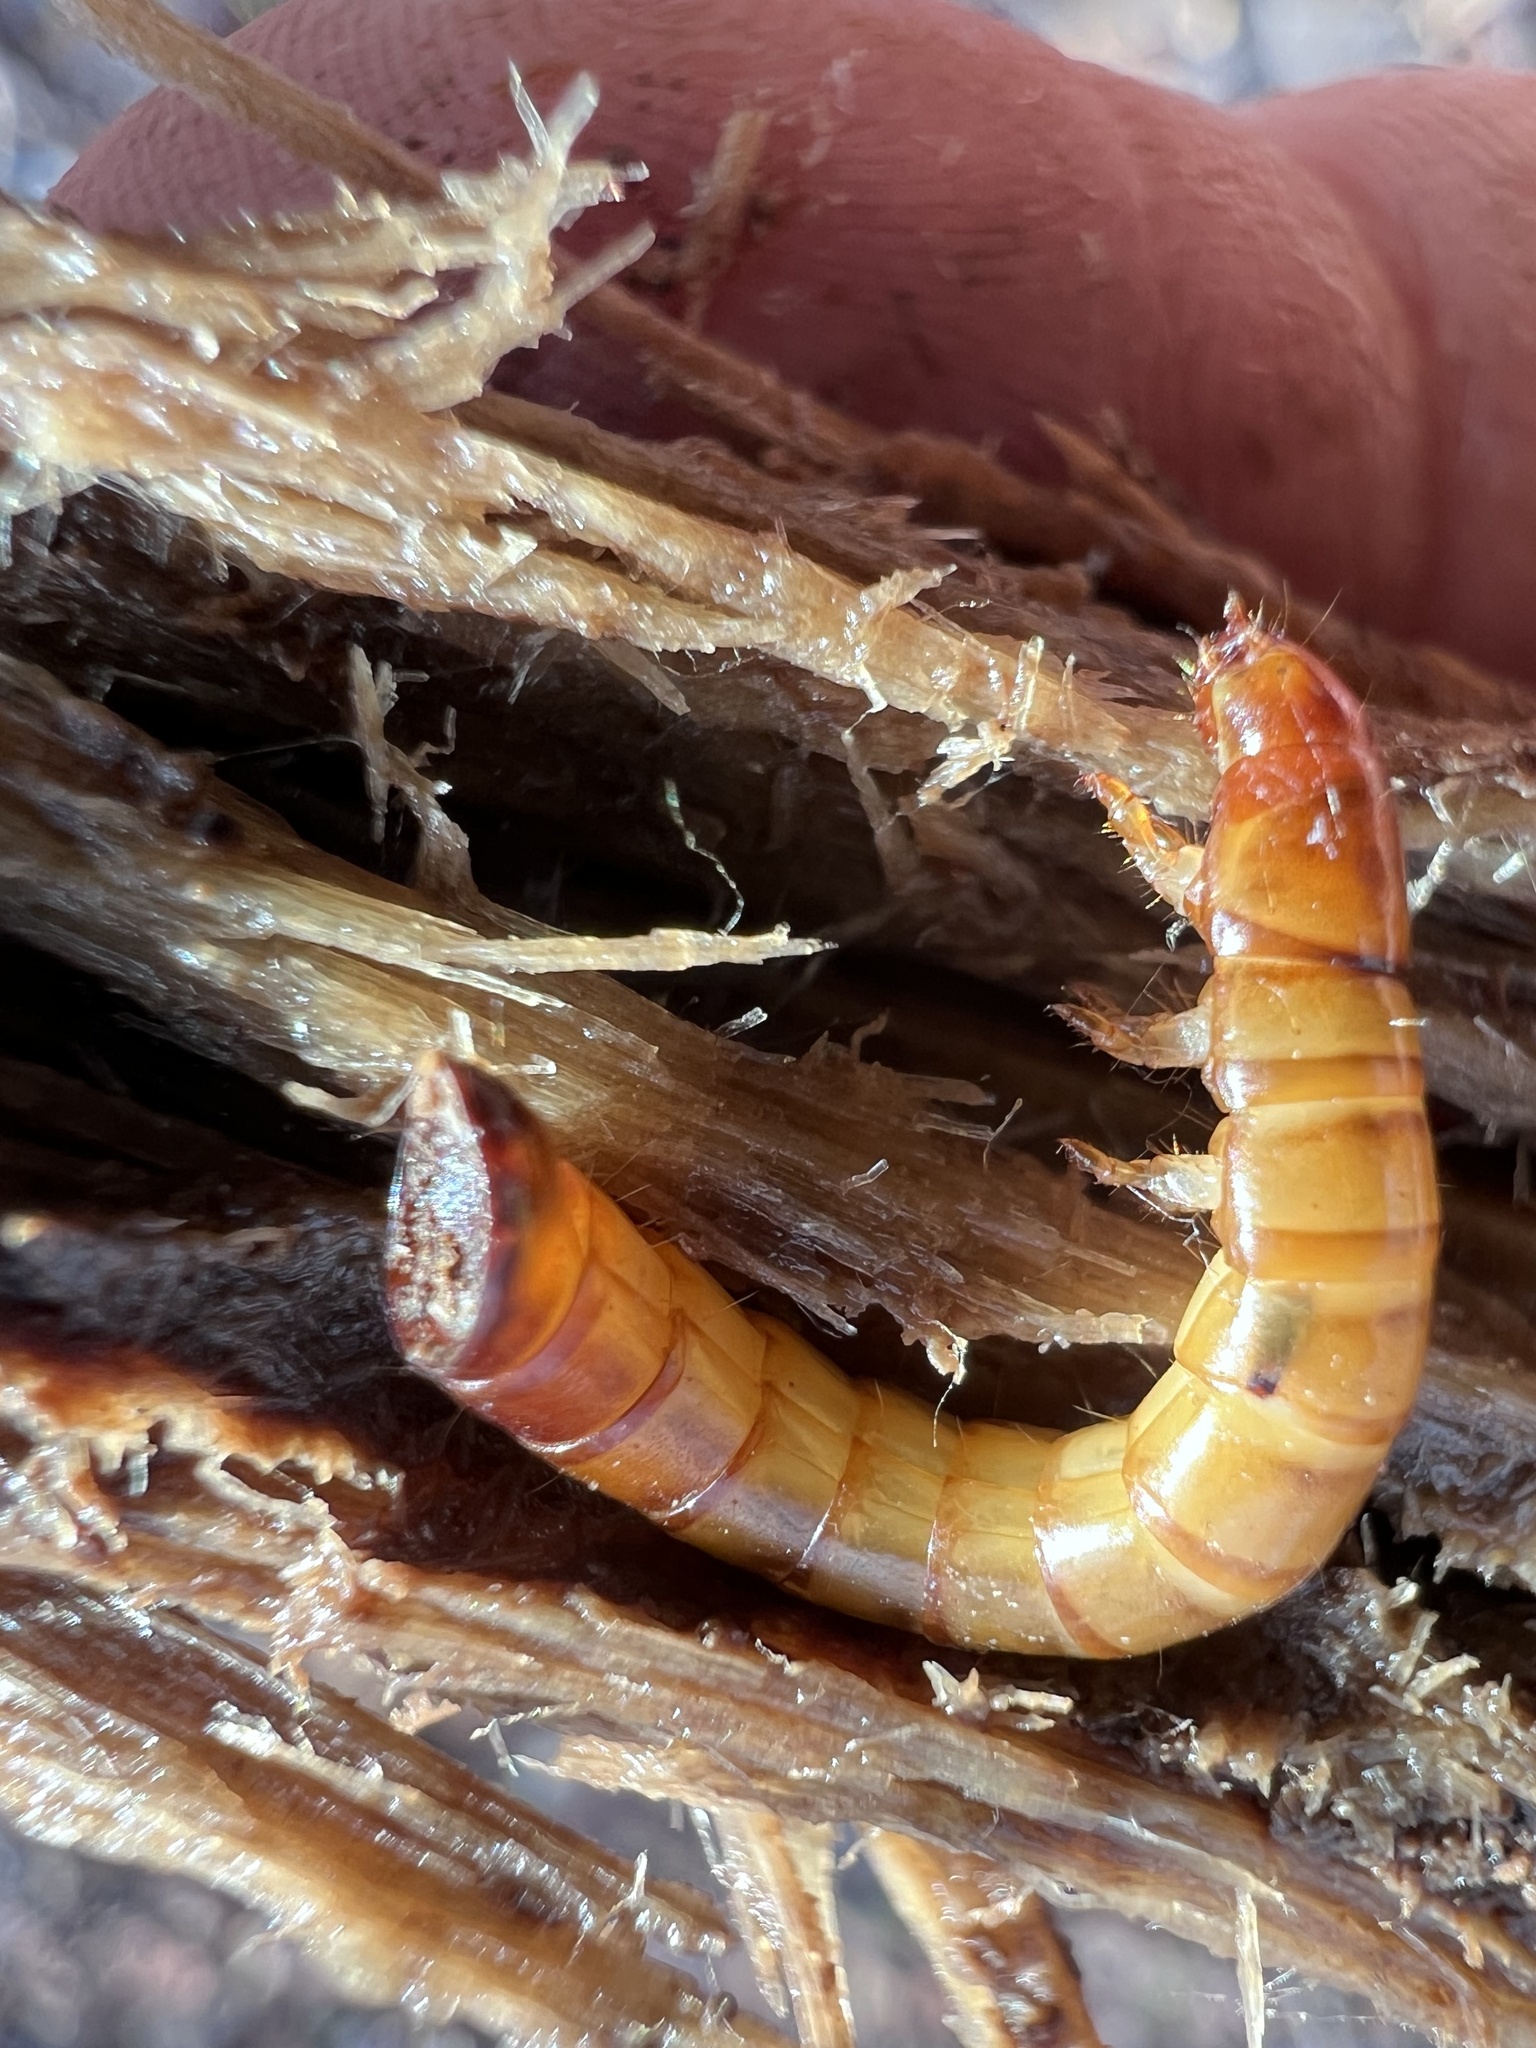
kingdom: Animalia
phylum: Arthropoda
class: Insecta
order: Coleoptera
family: Tenebrionidae
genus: Meracantha
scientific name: Meracantha contracta
